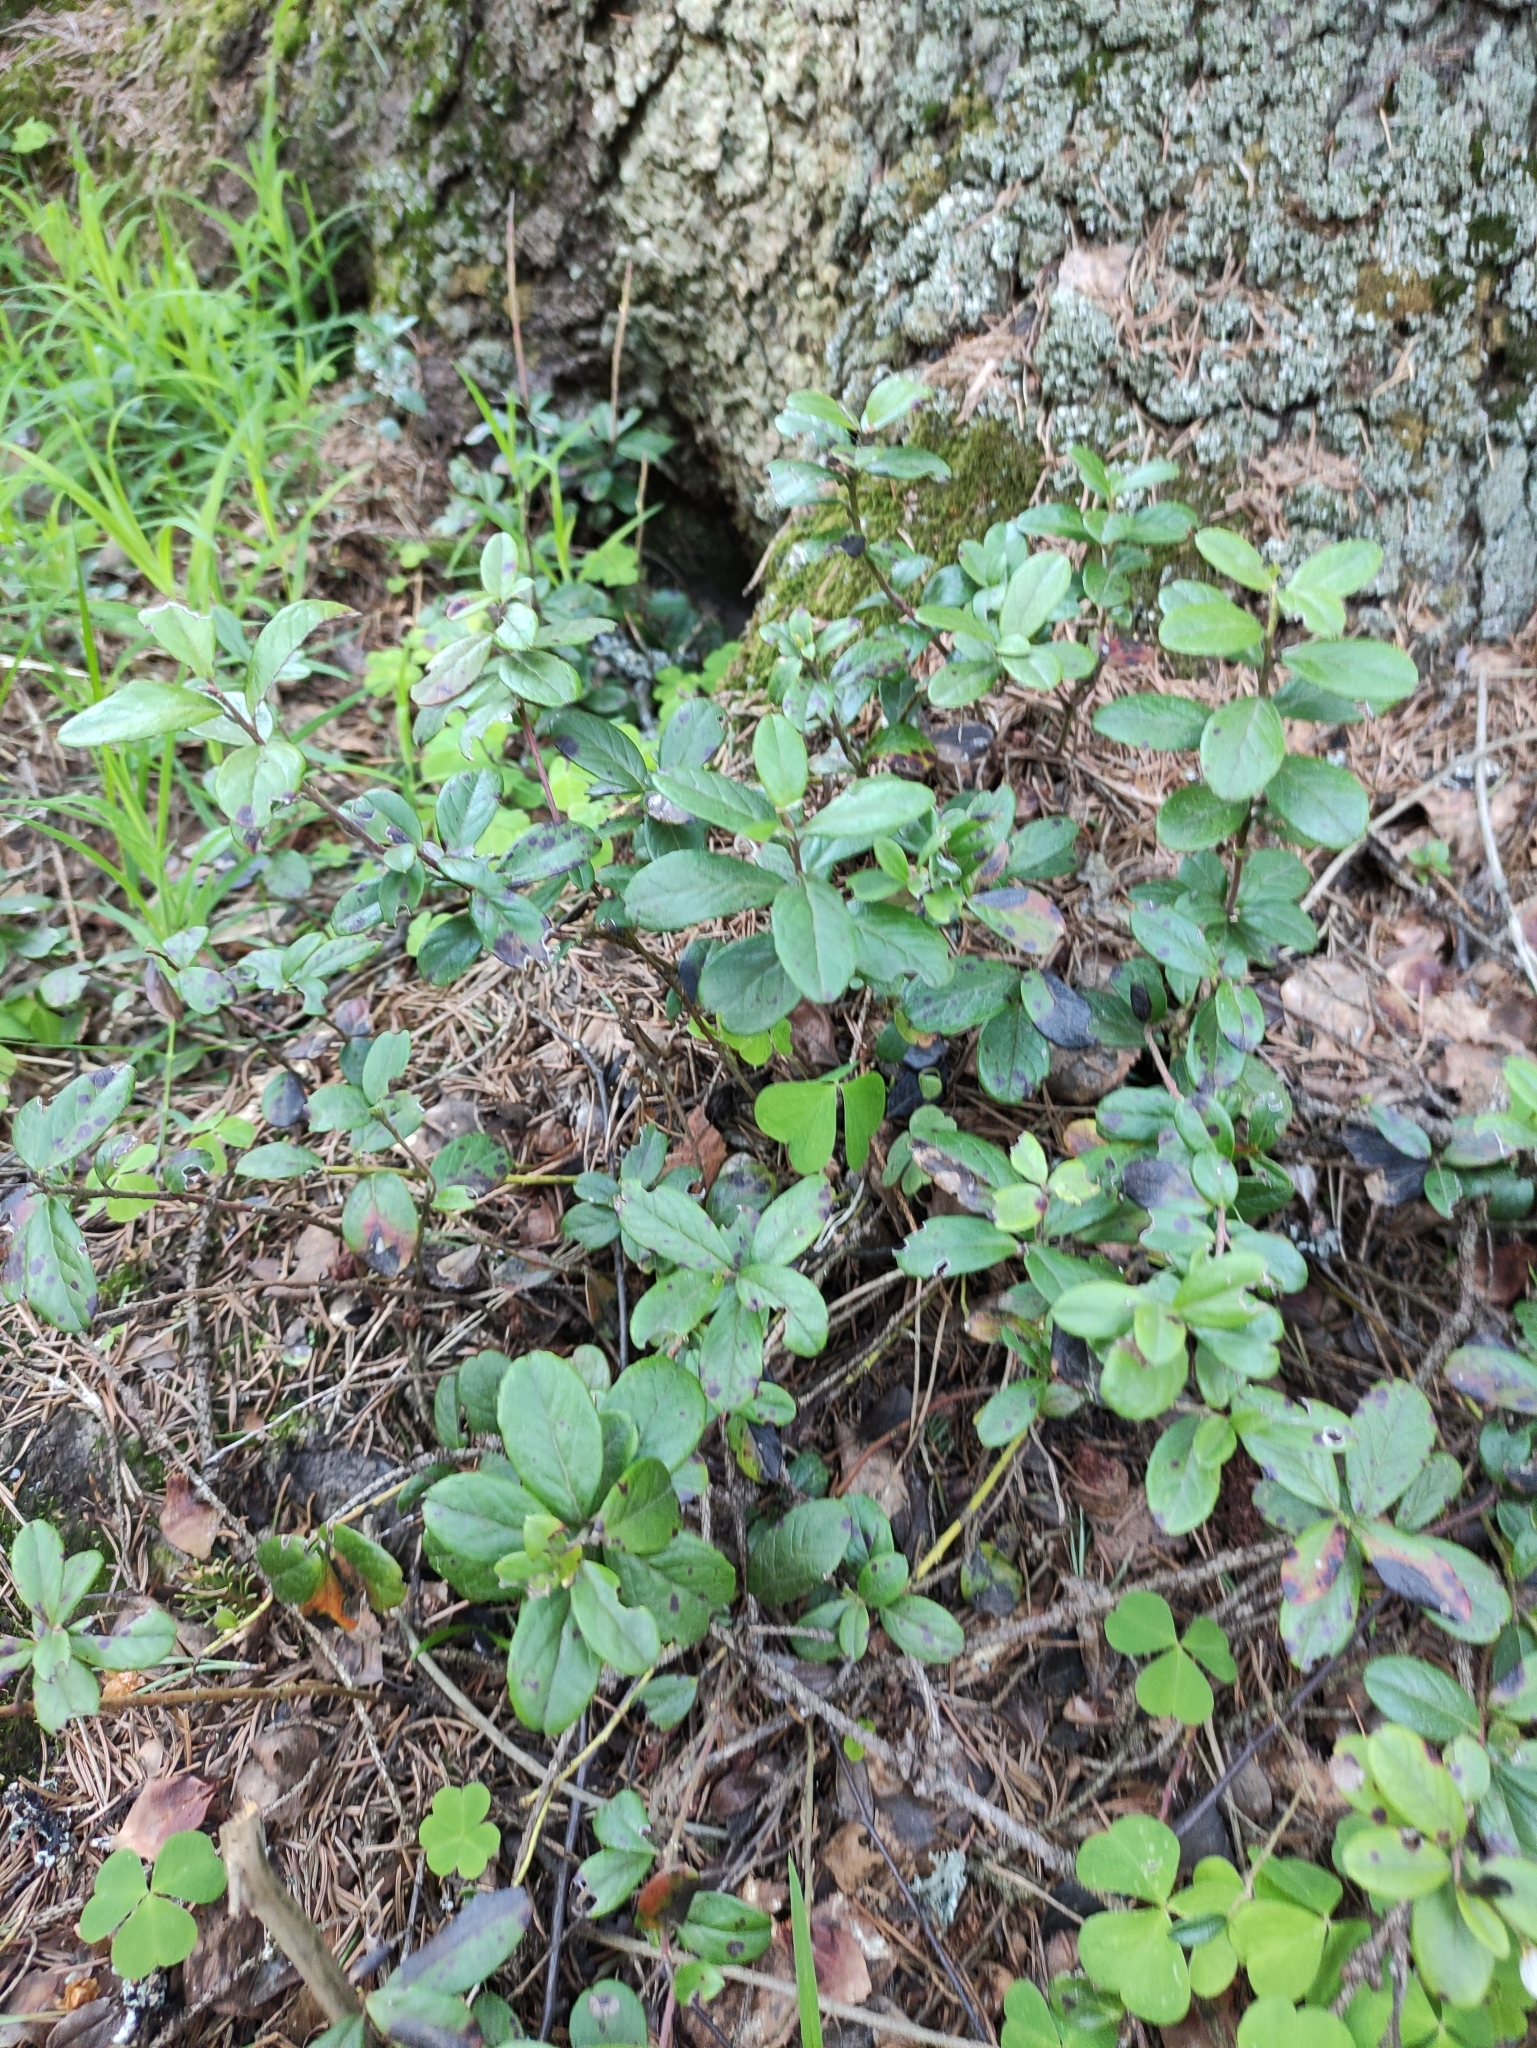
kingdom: Plantae
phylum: Tracheophyta
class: Magnoliopsida
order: Ericales
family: Ericaceae
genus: Vaccinium
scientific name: Vaccinium vitis-idaea
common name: Cowberry
